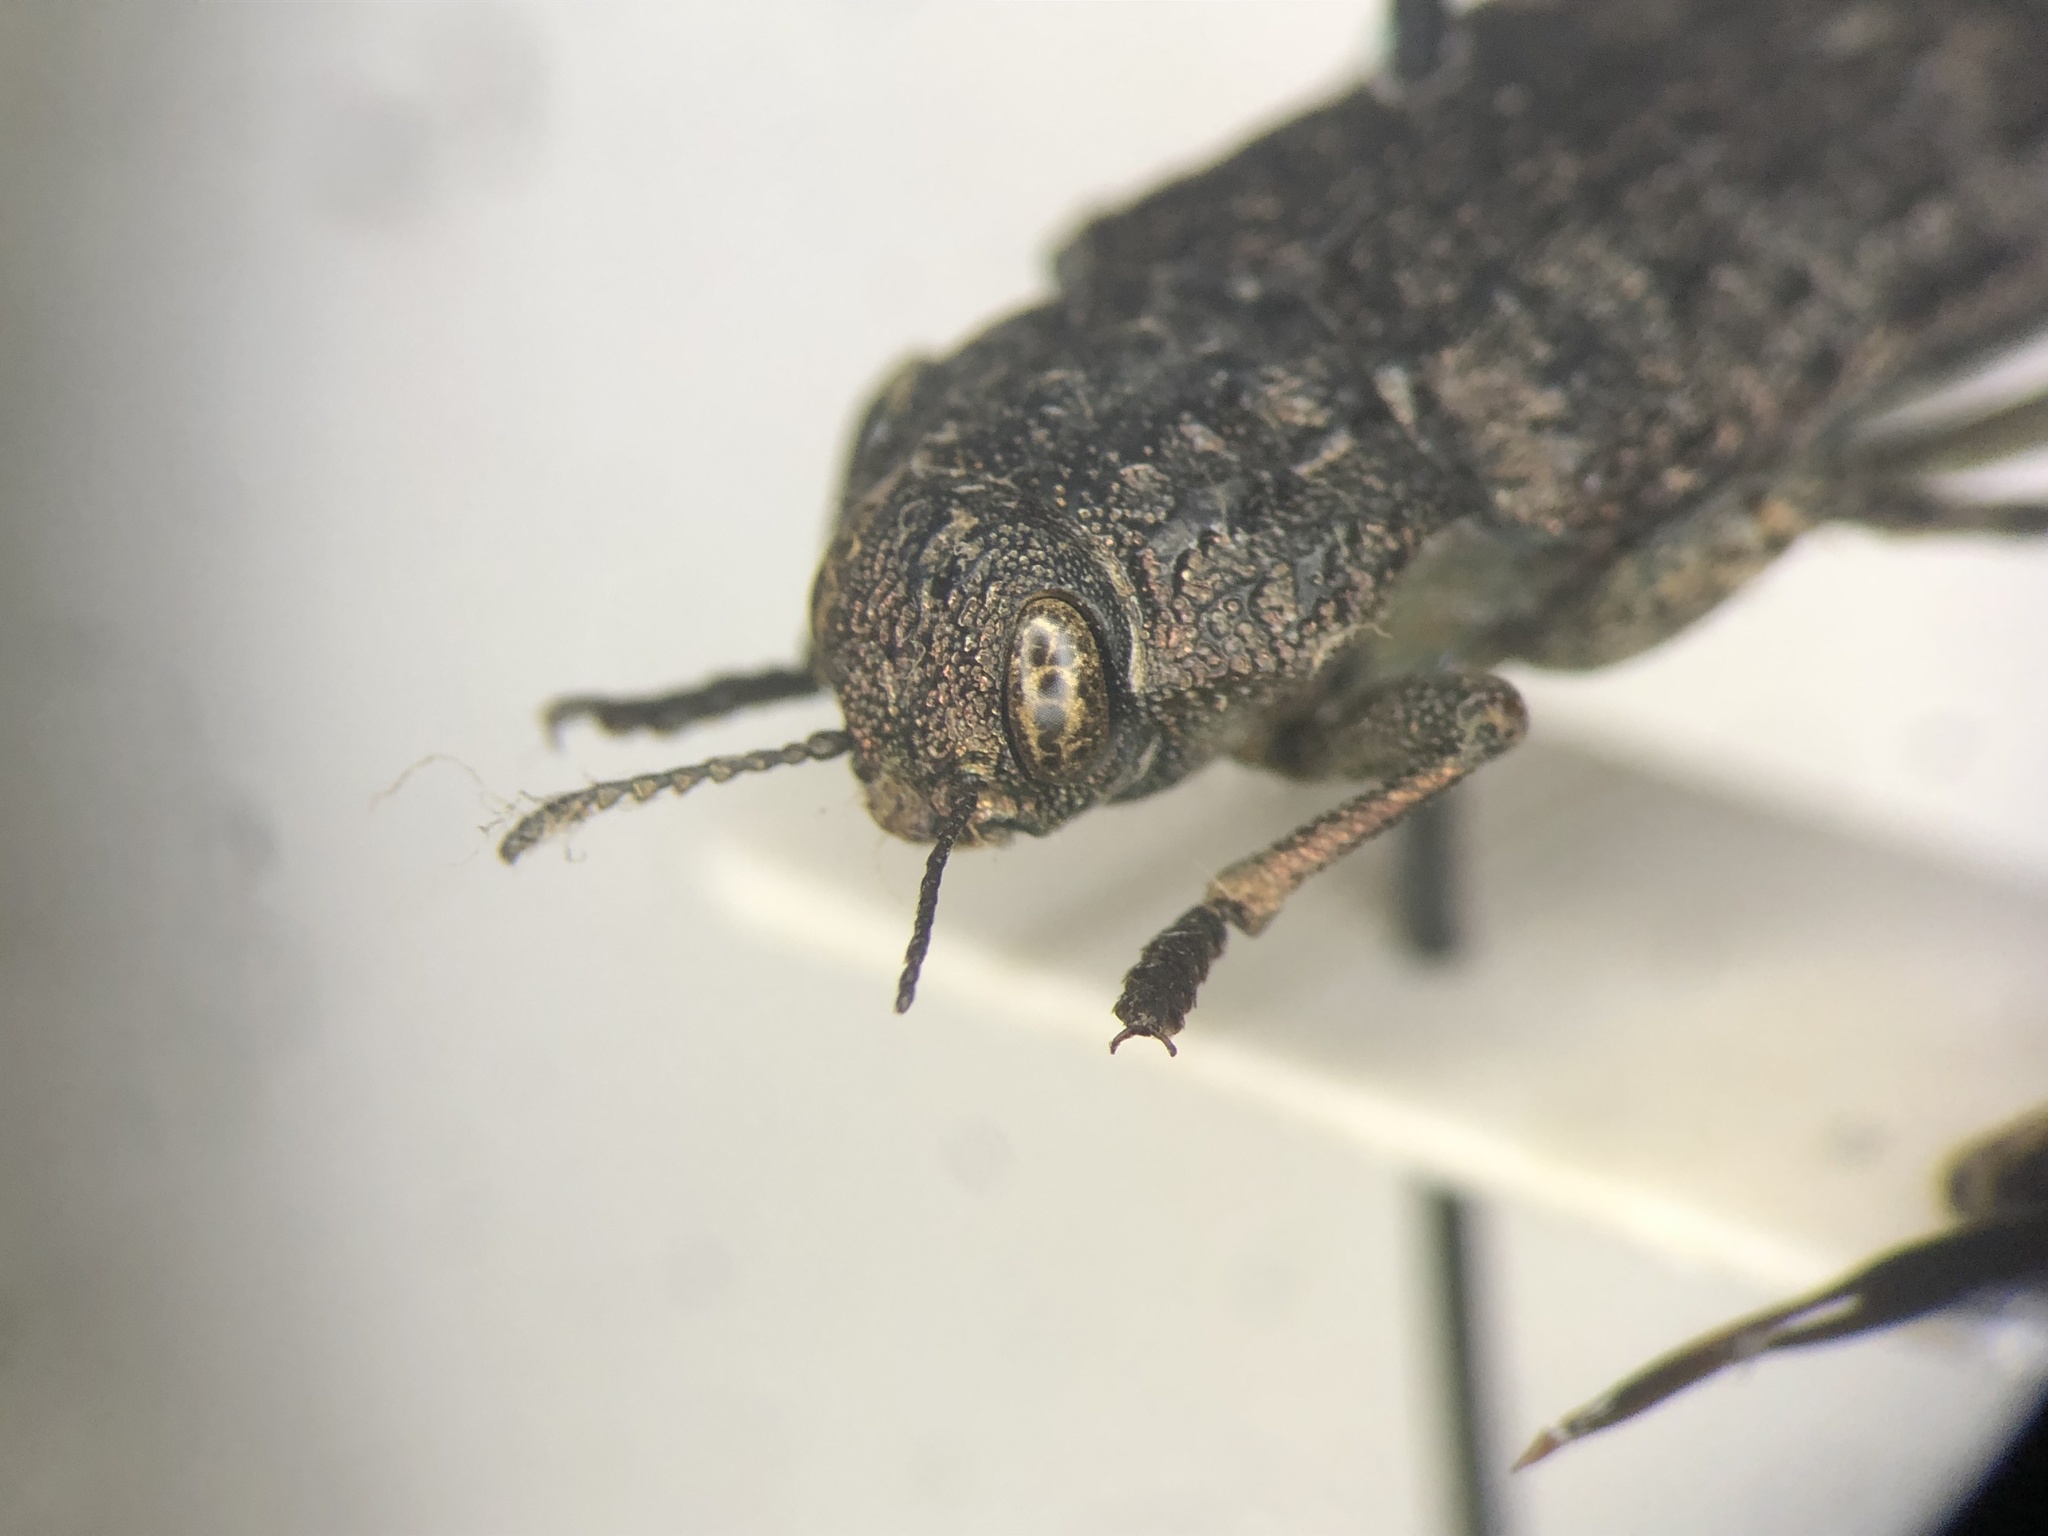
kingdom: Animalia
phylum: Arthropoda
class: Insecta
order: Coleoptera
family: Buprestidae
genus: Dicerca
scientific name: Dicerca tenebrosa
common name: Dark jewel beetle
